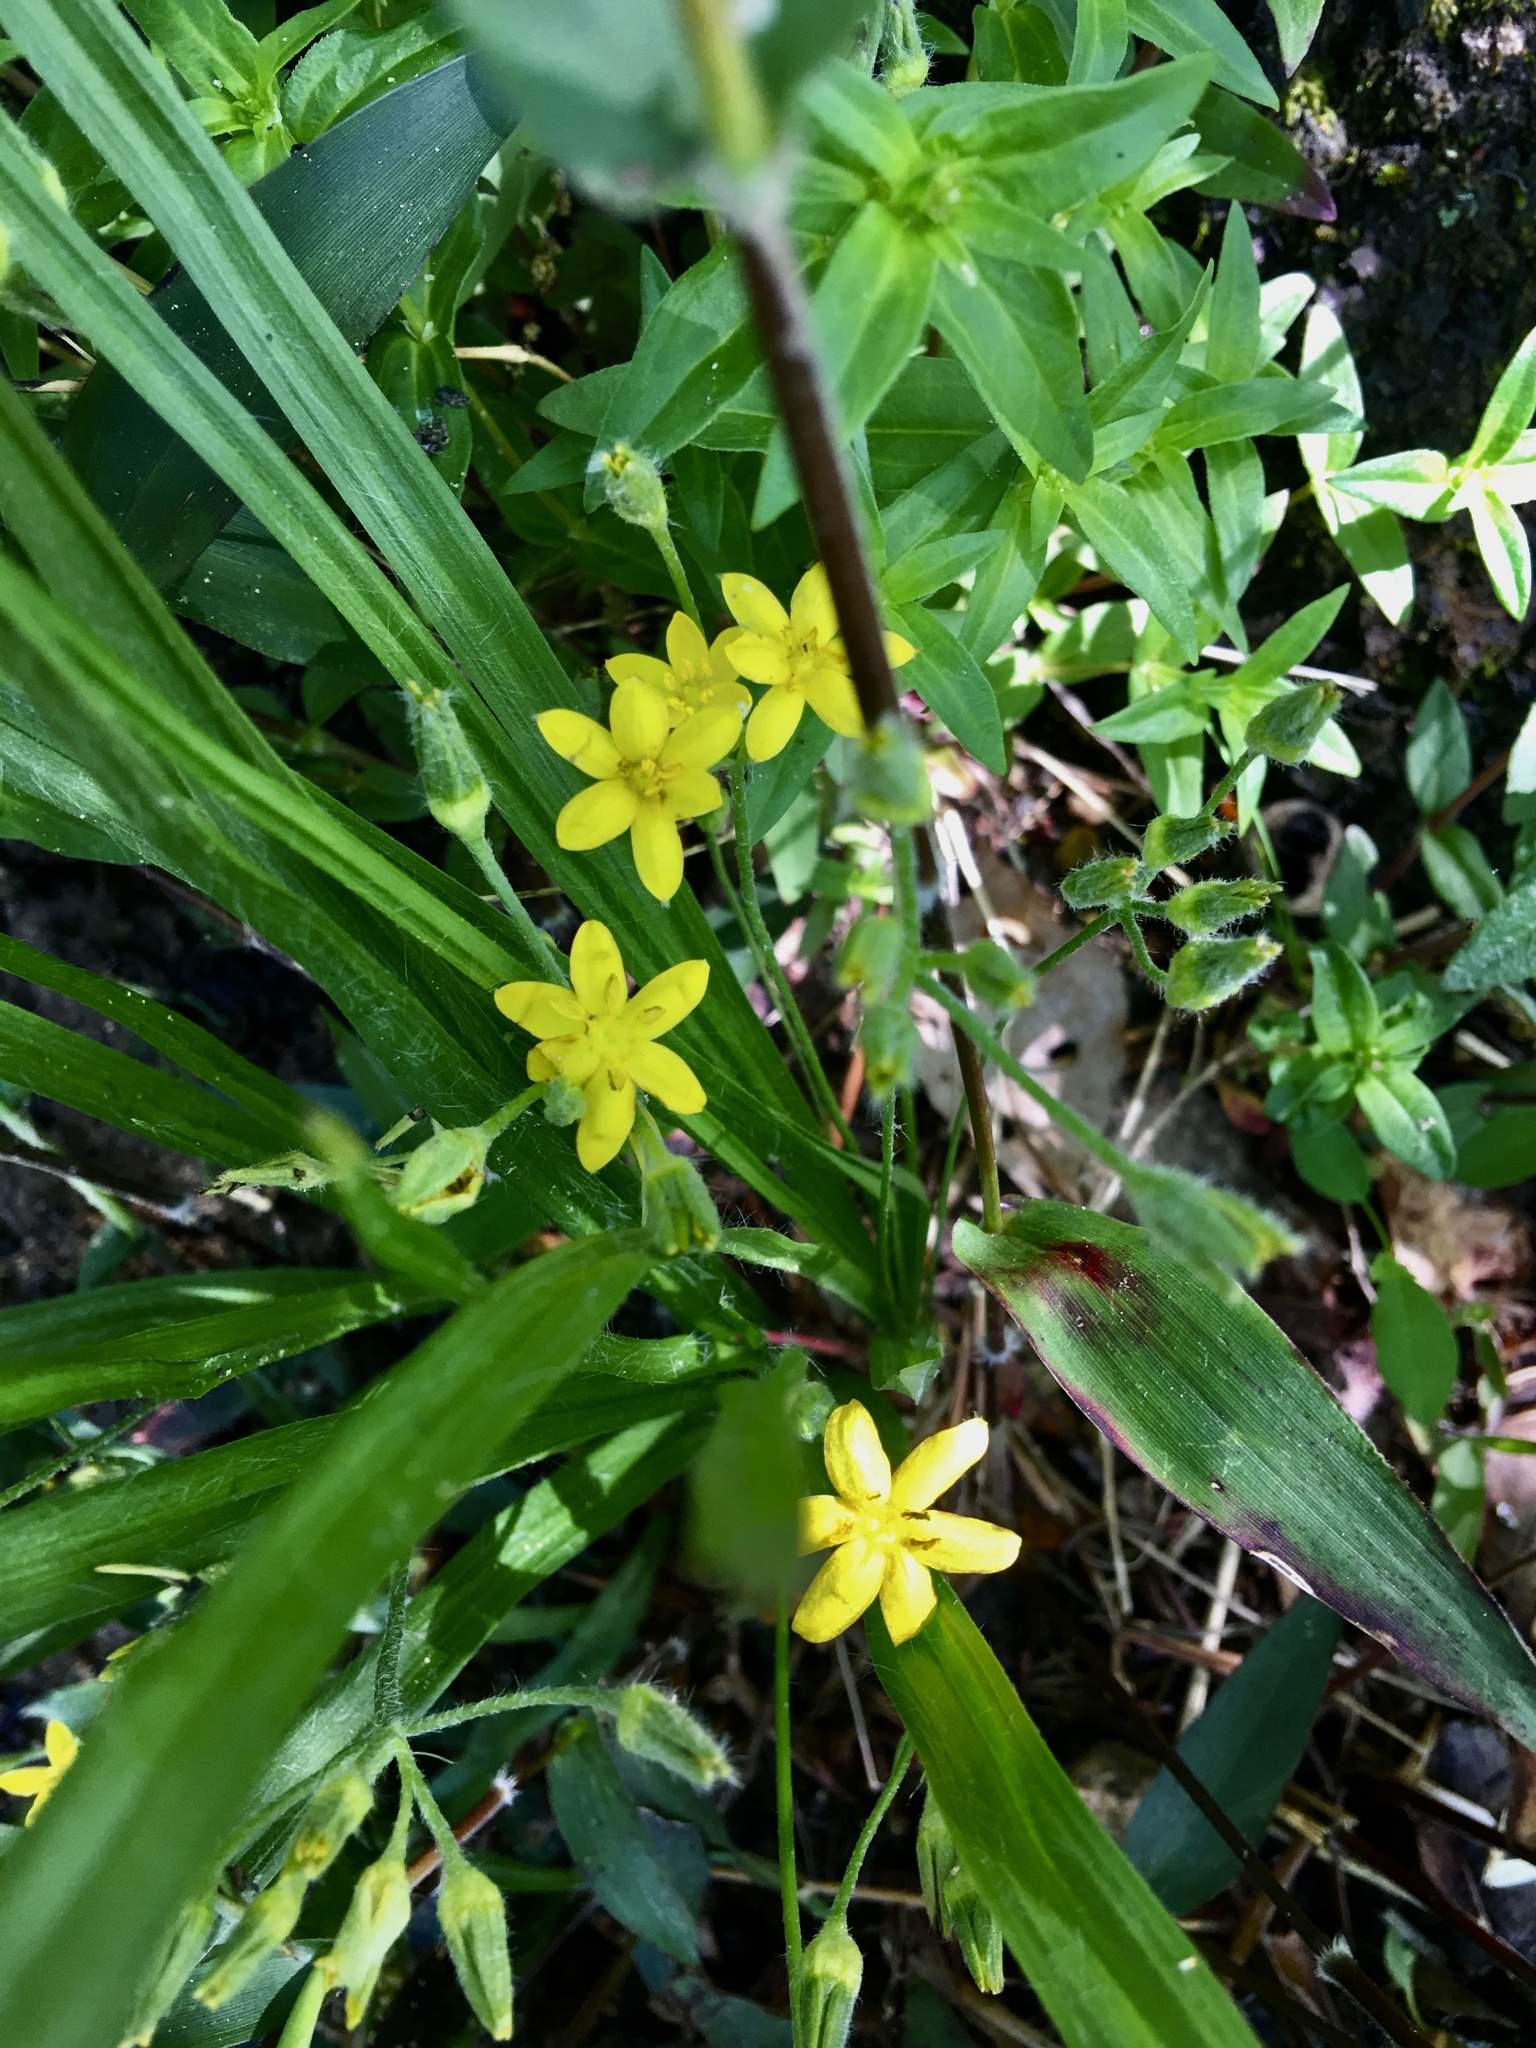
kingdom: Plantae
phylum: Tracheophyta
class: Liliopsida
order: Asparagales
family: Hypoxidaceae
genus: Hypoxis
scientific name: Hypoxis hirsuta
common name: Common goldstar
